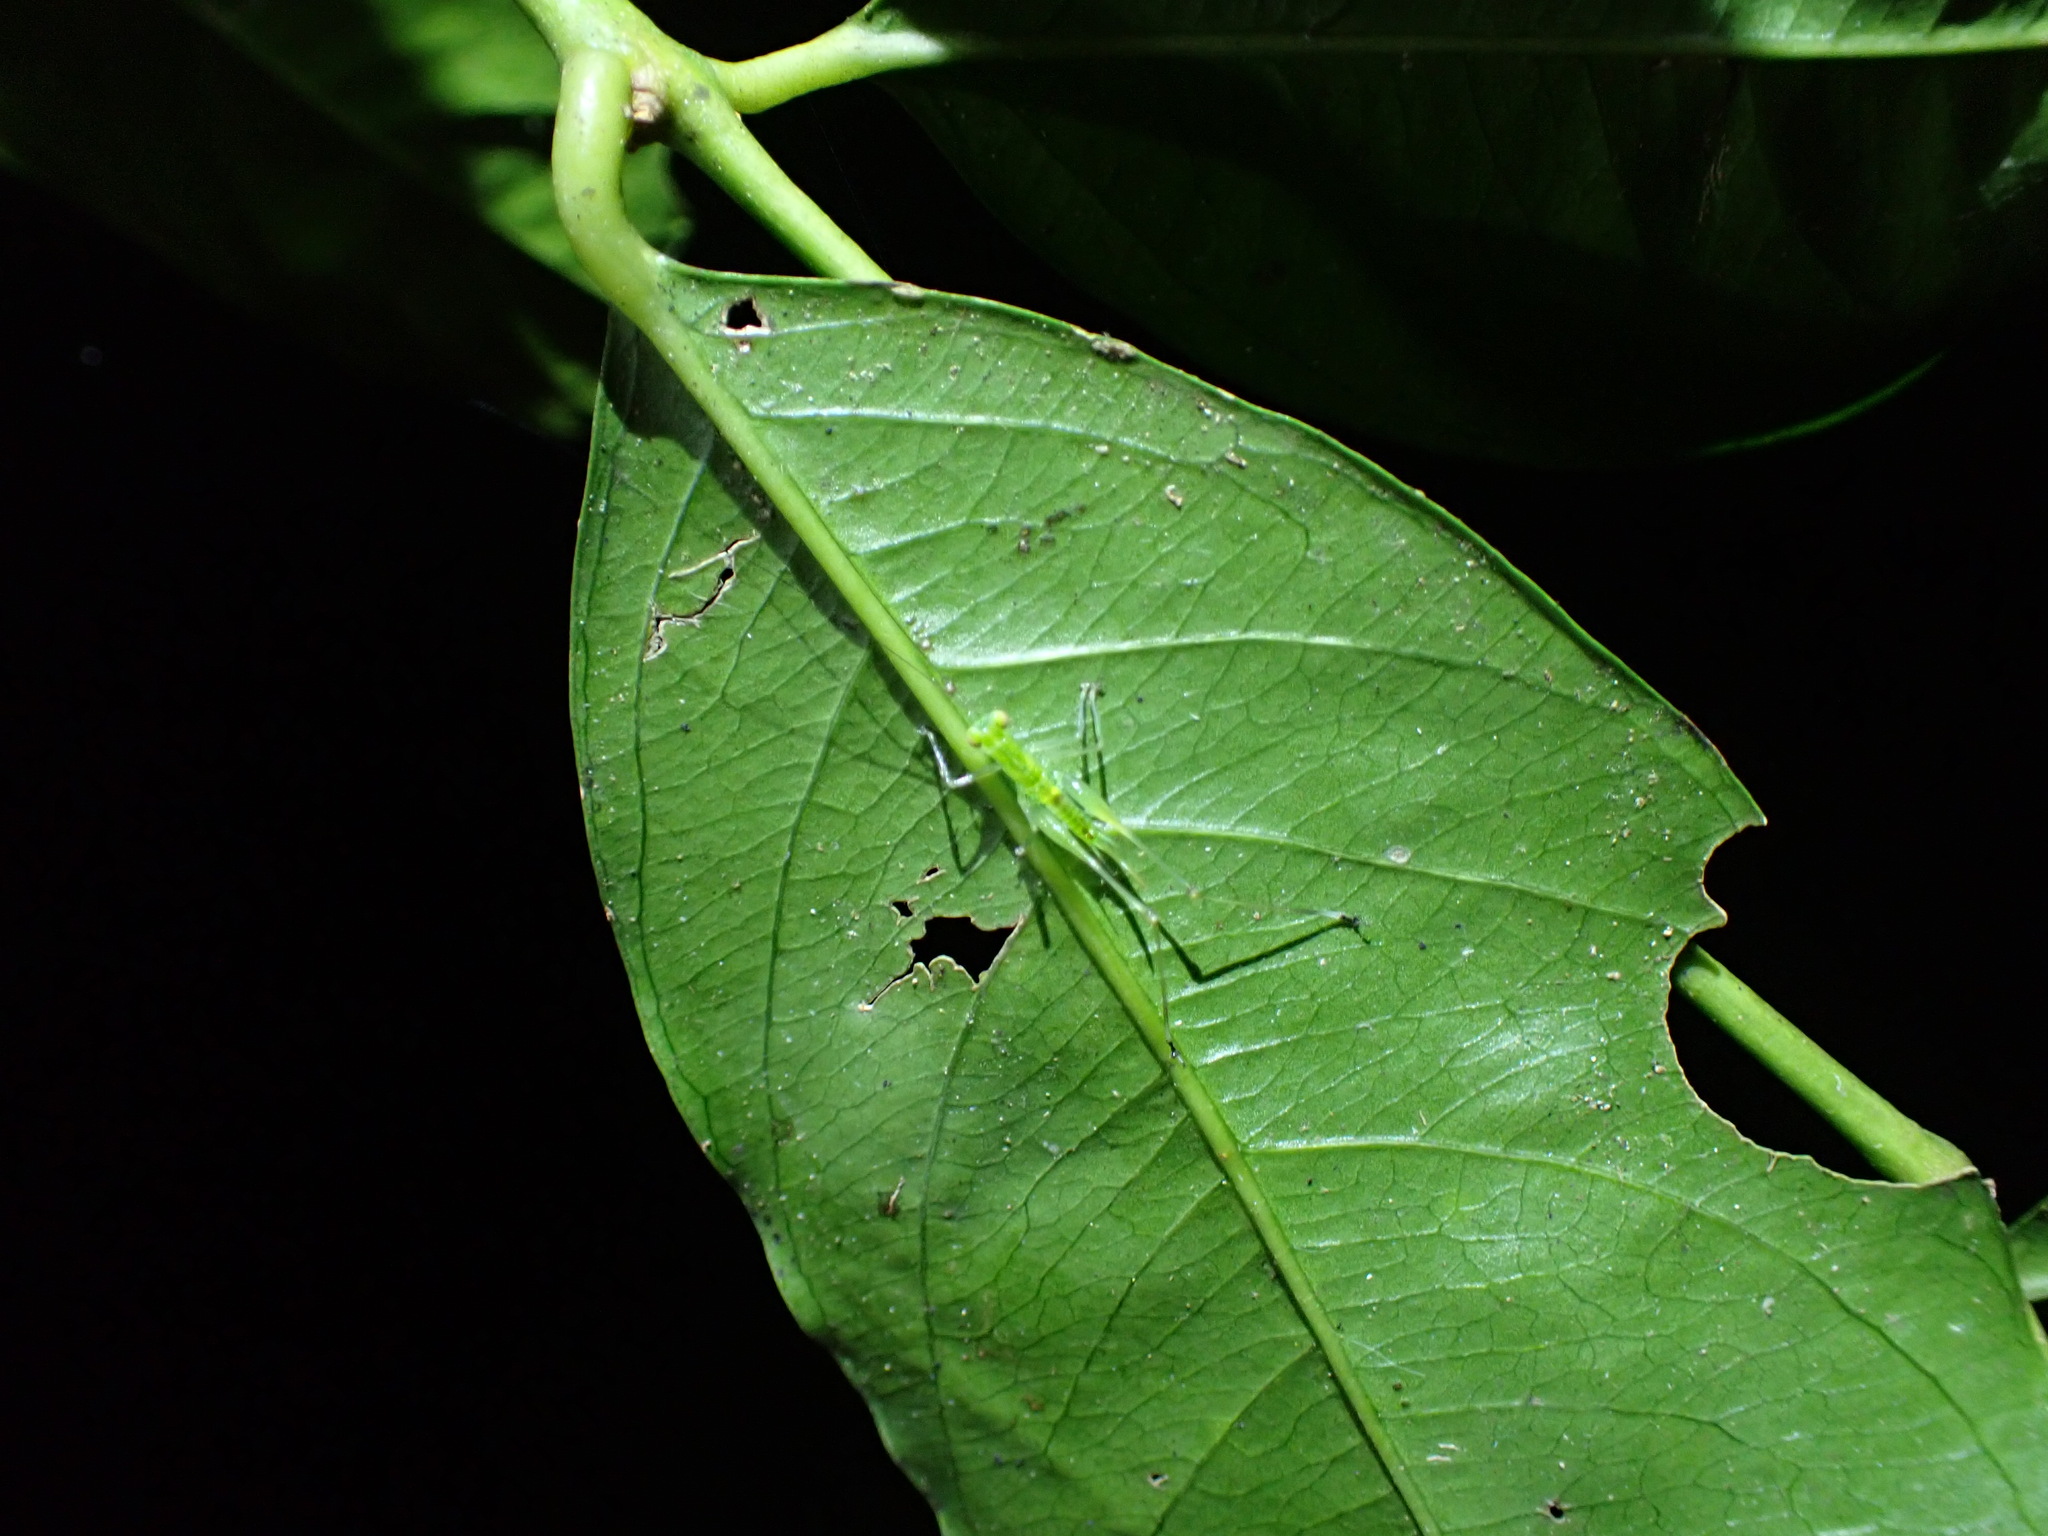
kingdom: Animalia
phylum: Arthropoda
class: Insecta
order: Orthoptera
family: Tettigoniidae
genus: Lucienola
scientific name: Lucienola brittoni
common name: Britton's swayer
